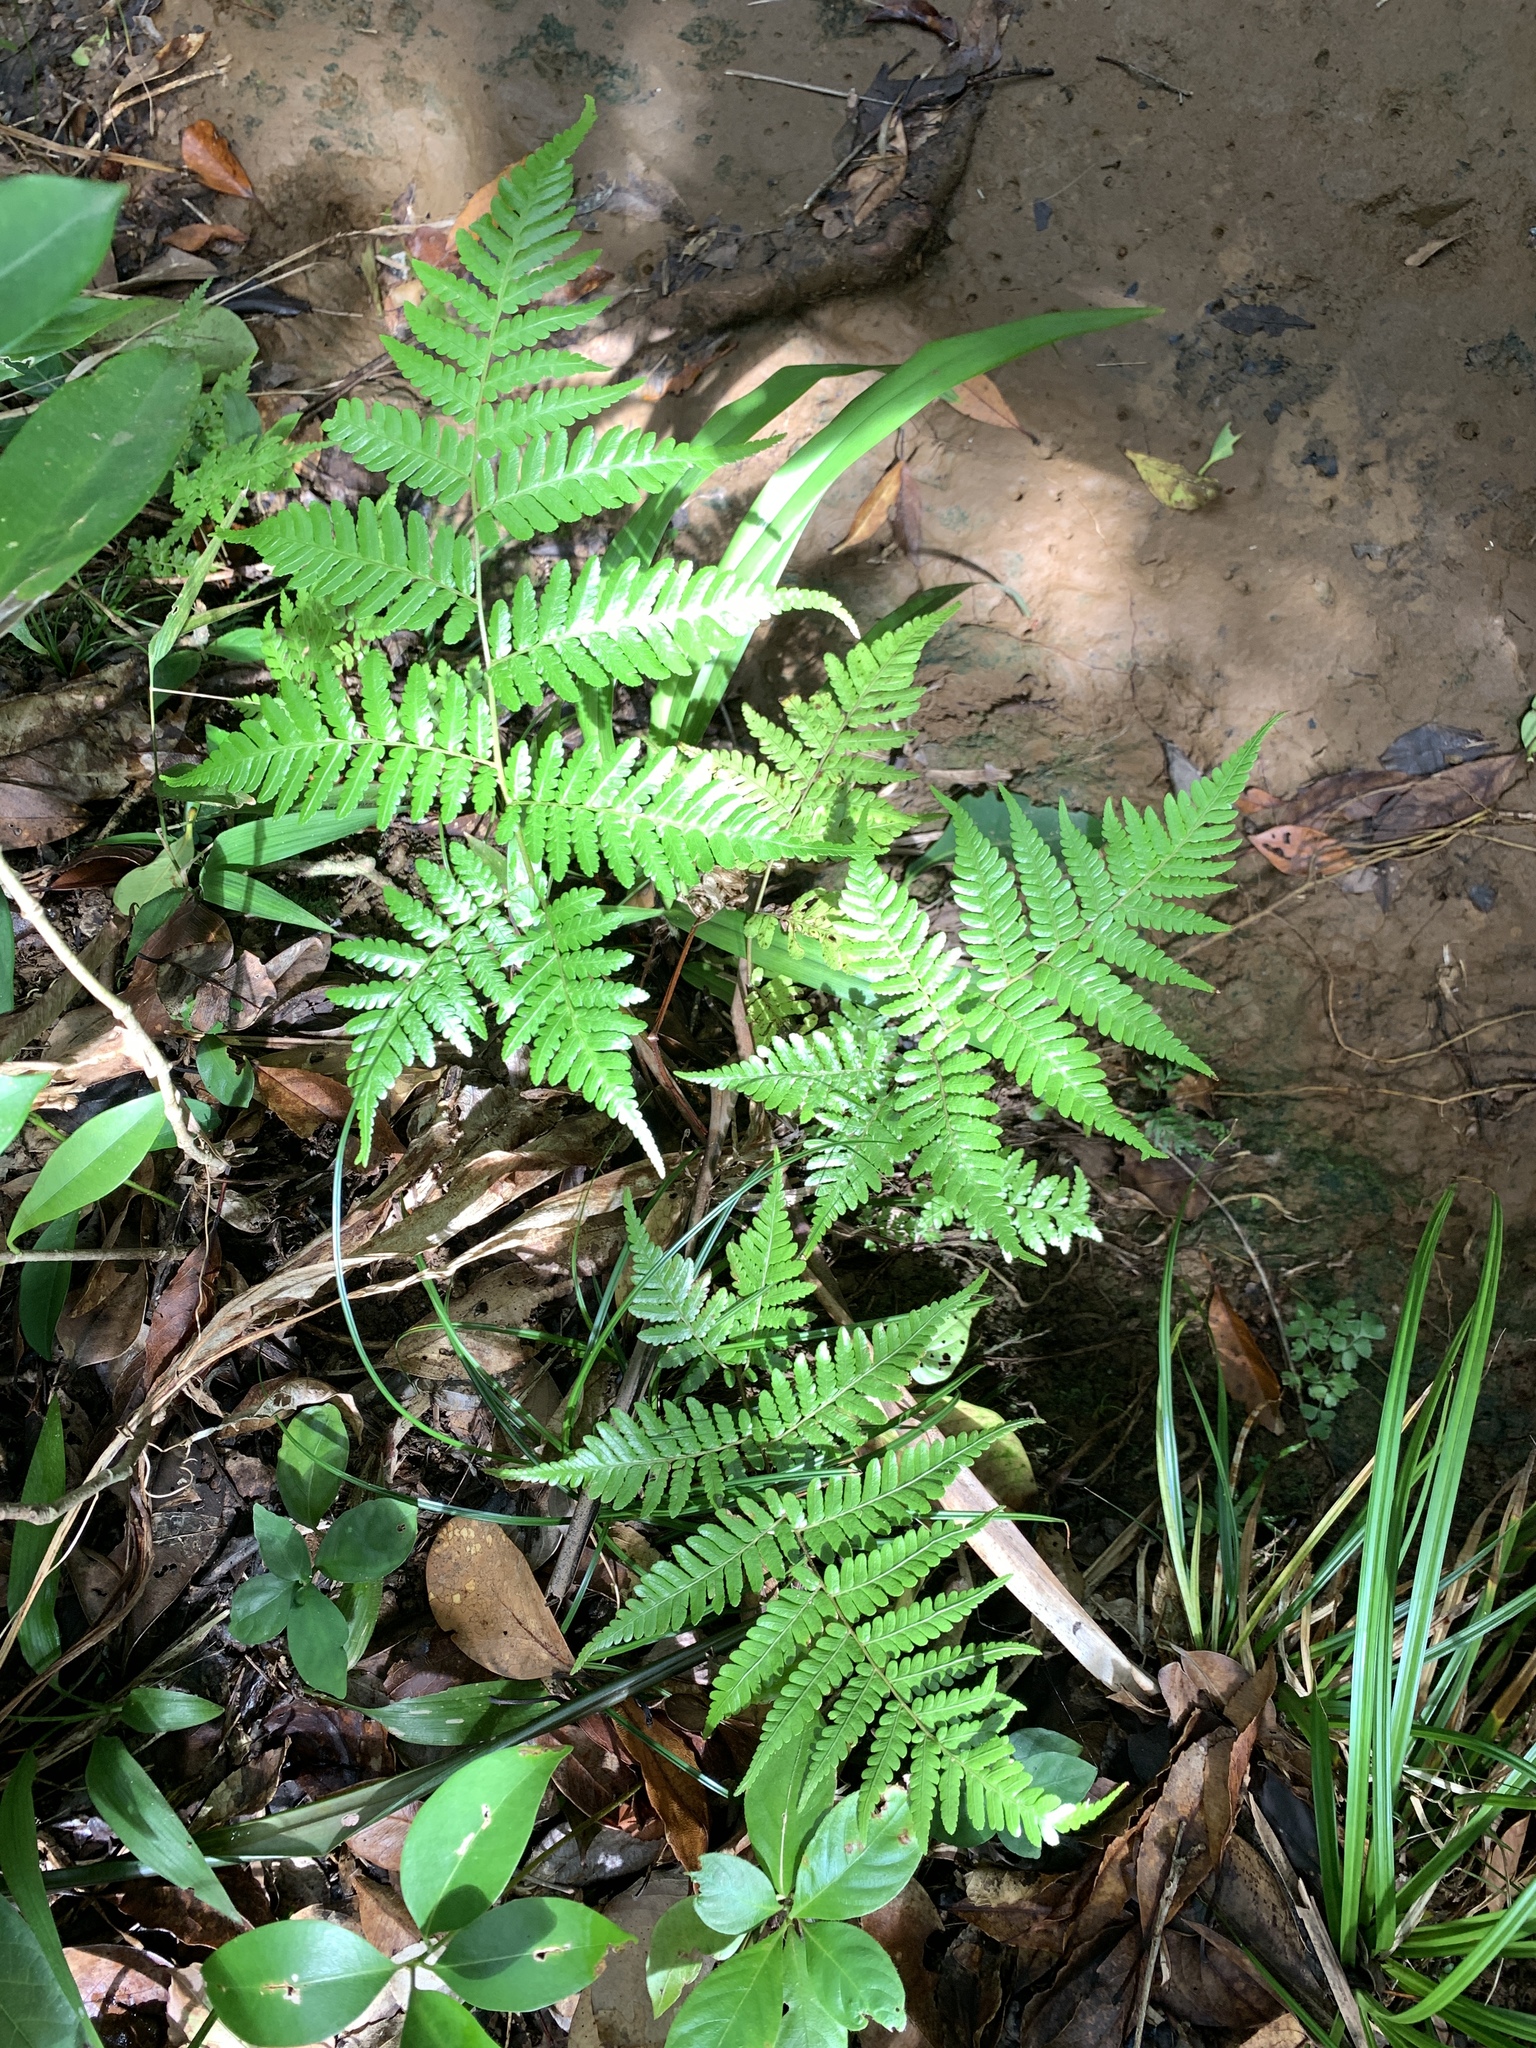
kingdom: Plantae
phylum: Tracheophyta
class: Polypodiopsida
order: Cyatheales
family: Cyatheaceae
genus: Alsophila
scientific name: Alsophila fenicis
